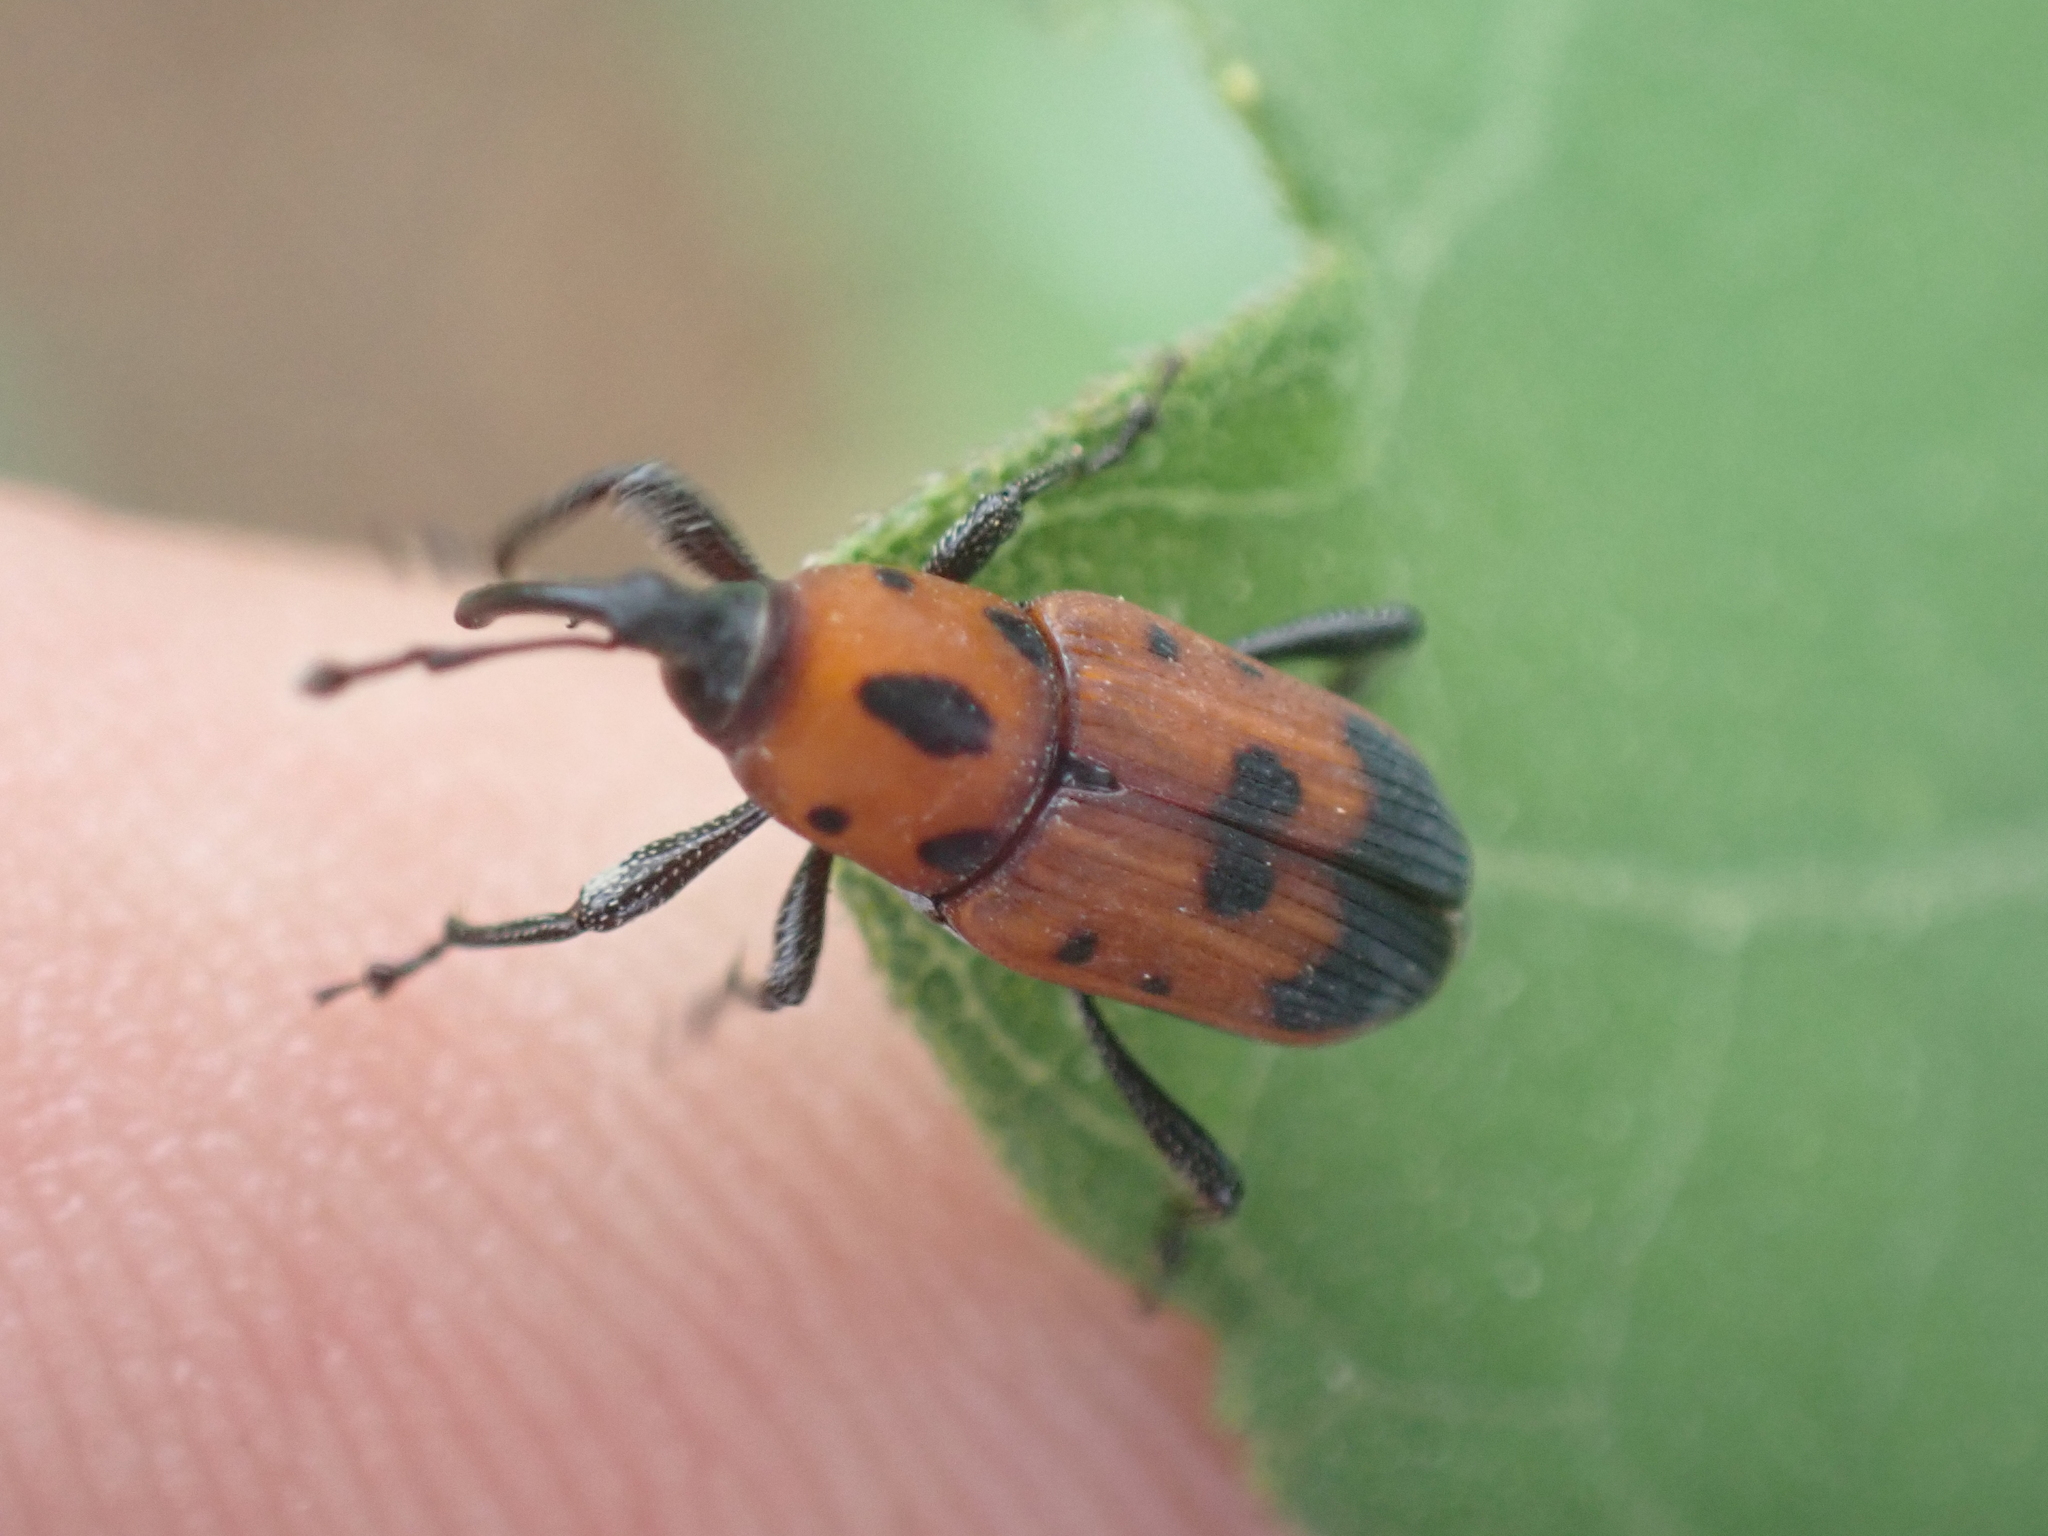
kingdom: Animalia
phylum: Arthropoda
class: Insecta
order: Coleoptera
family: Dryophthoridae
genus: Rhodobaenus
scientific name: Rhodobaenus quinquepunctatus
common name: Cocklebur weevil
